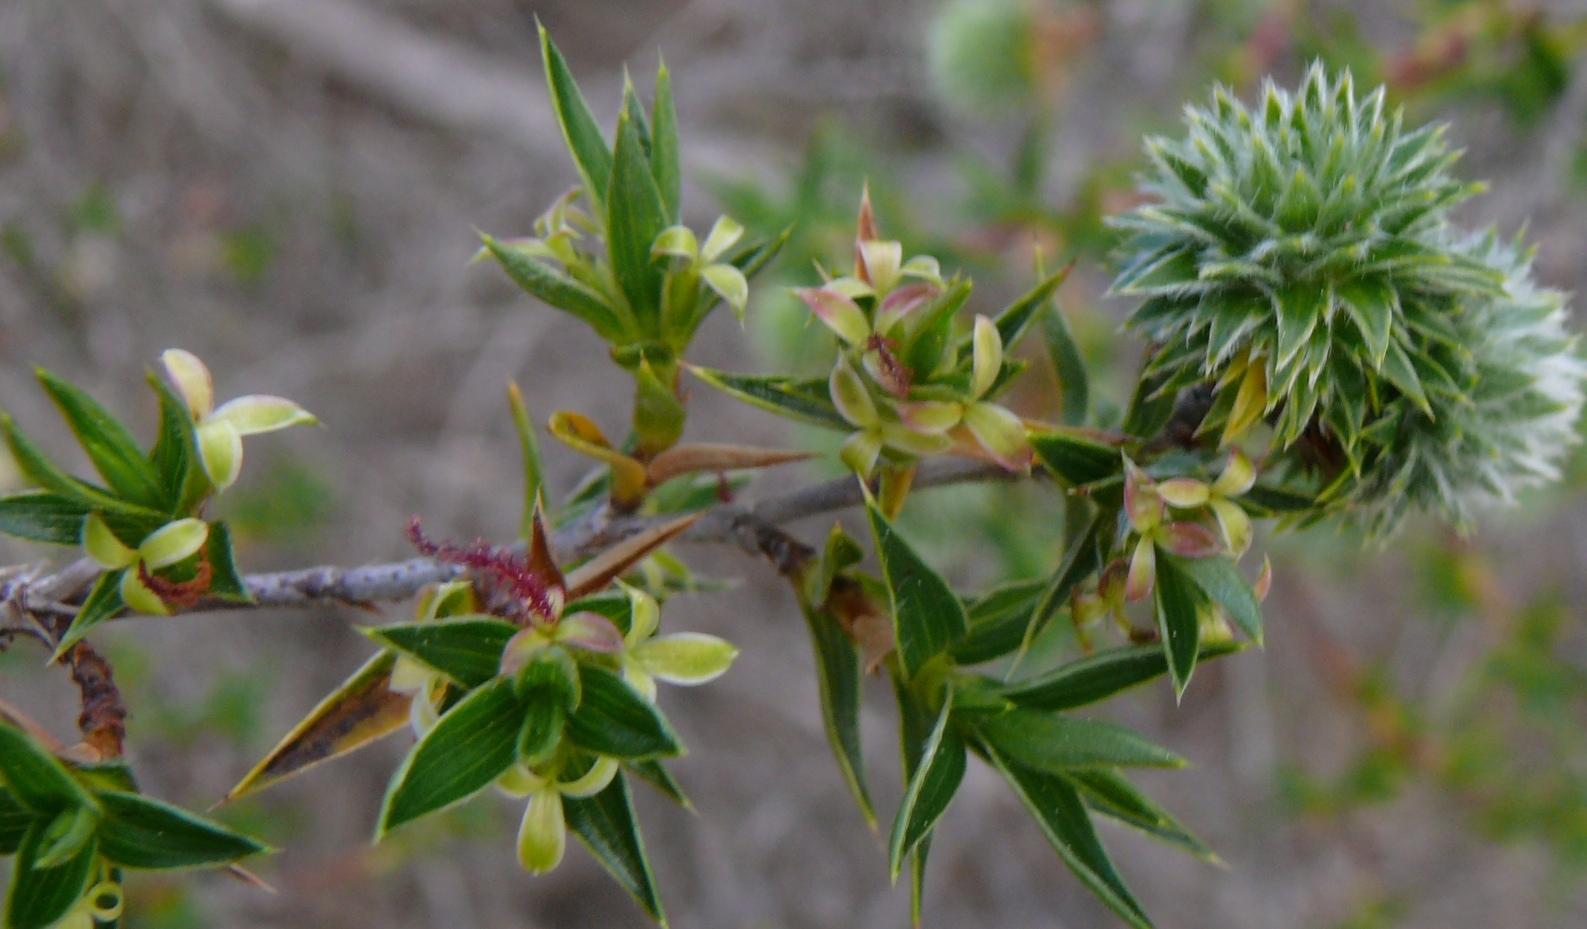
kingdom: Plantae
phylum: Tracheophyta
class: Magnoliopsida
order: Rosales
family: Rosaceae
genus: Cliffortia
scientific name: Cliffortia ruscifolia
